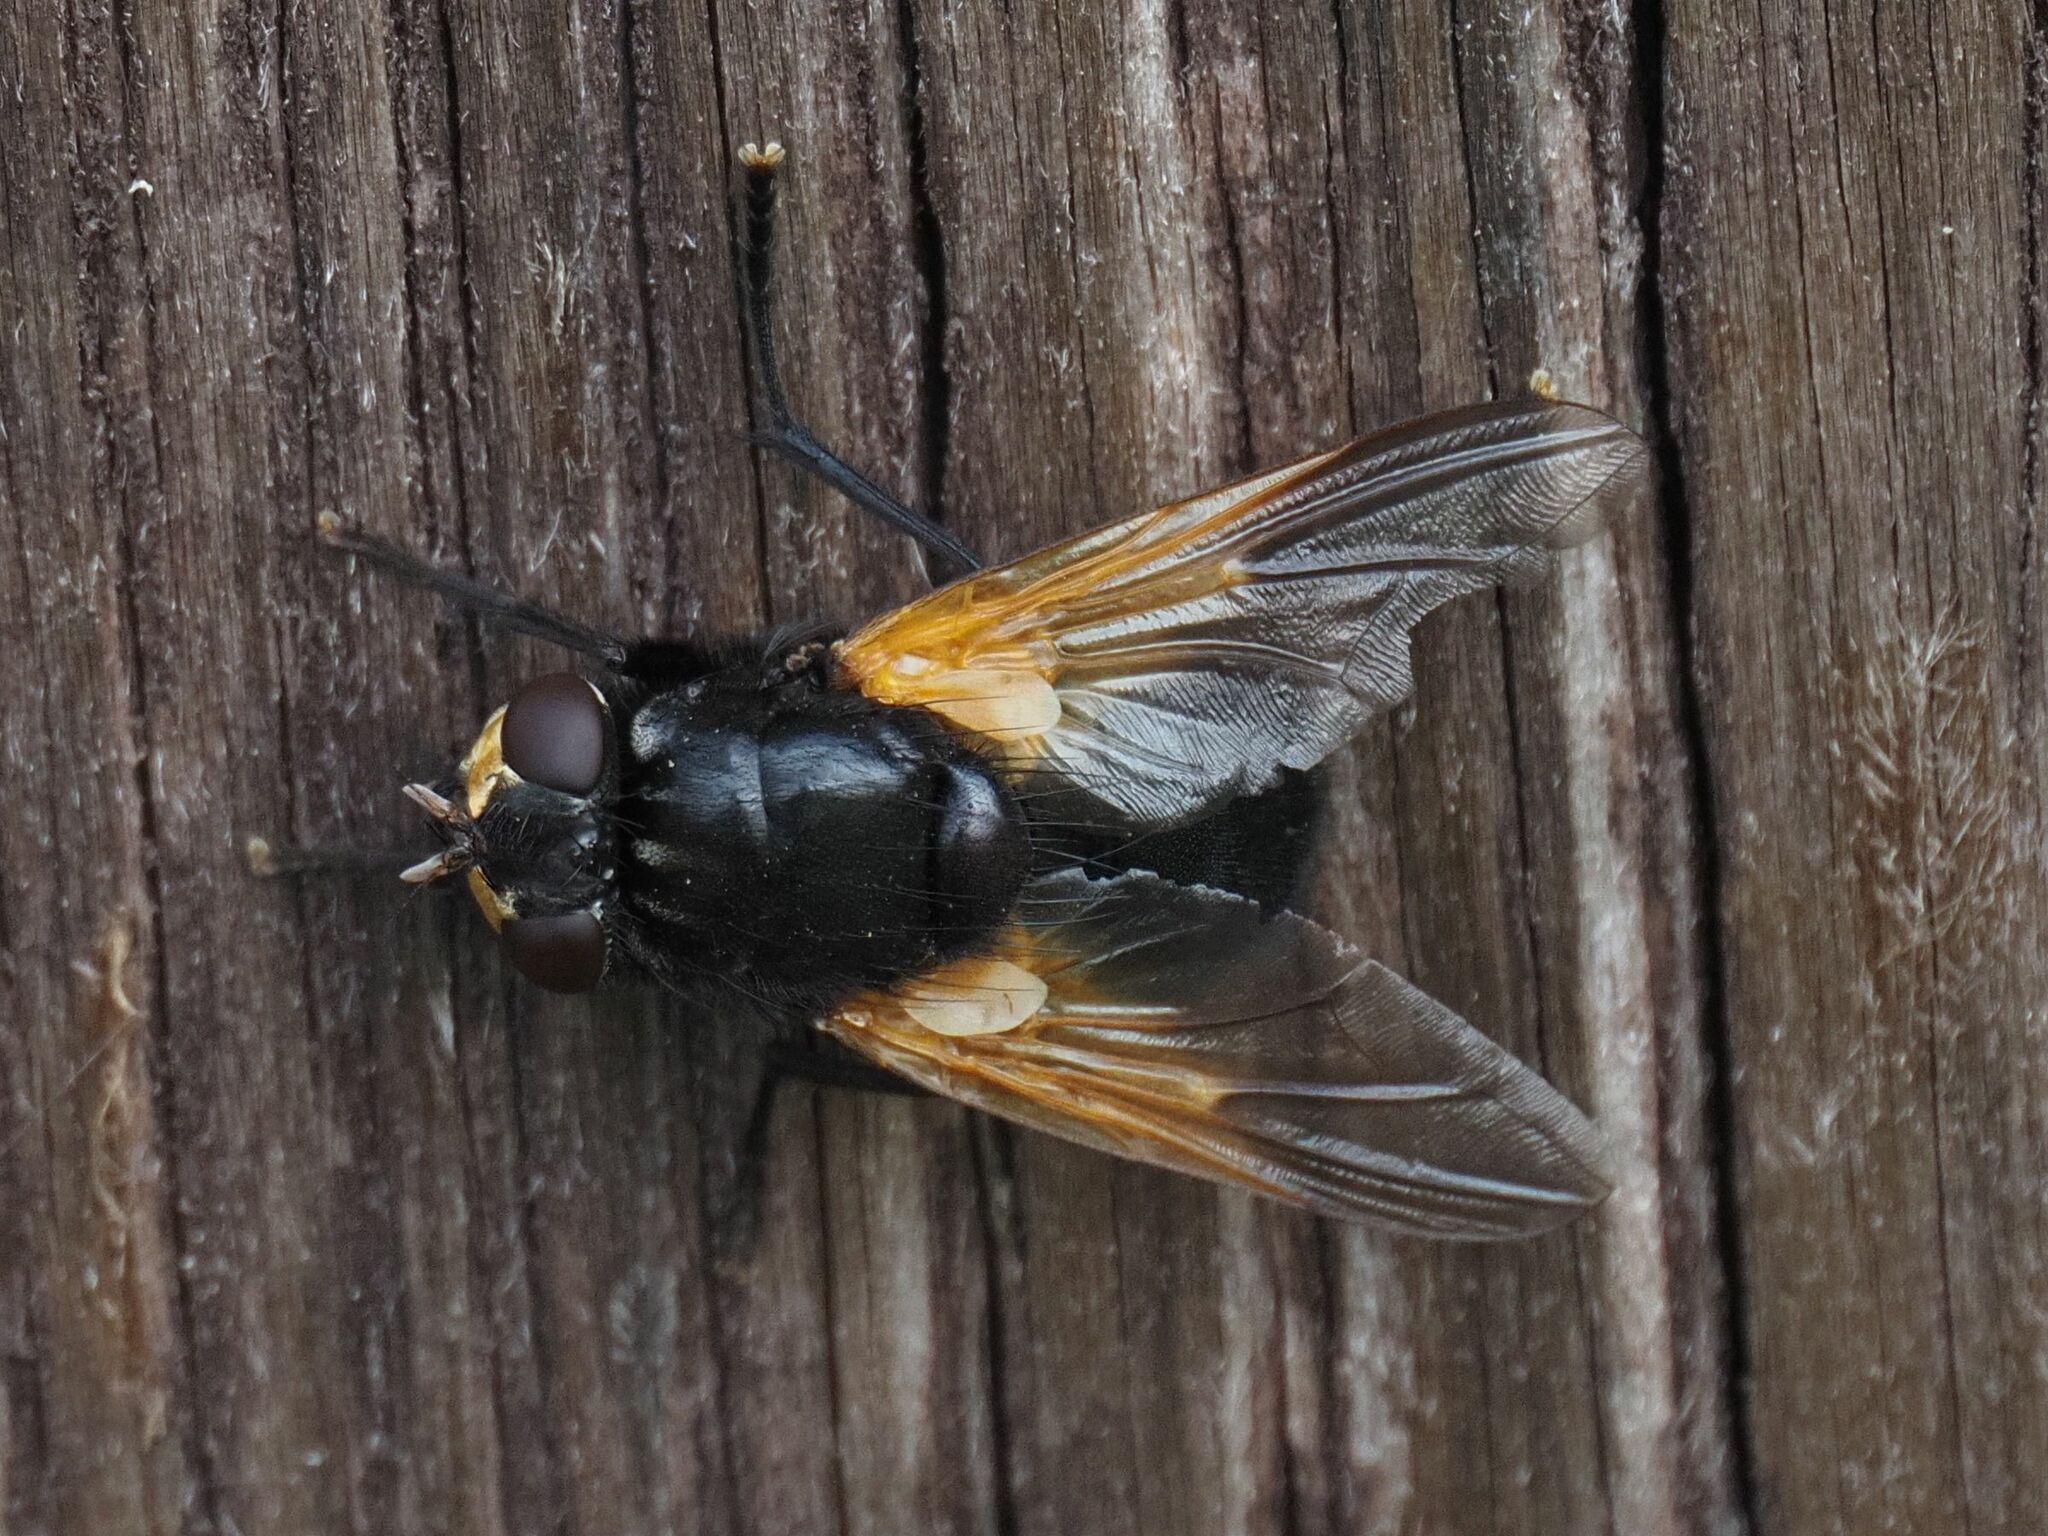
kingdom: Animalia
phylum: Arthropoda
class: Insecta
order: Diptera
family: Muscidae
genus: Mesembrina
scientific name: Mesembrina meridiana
